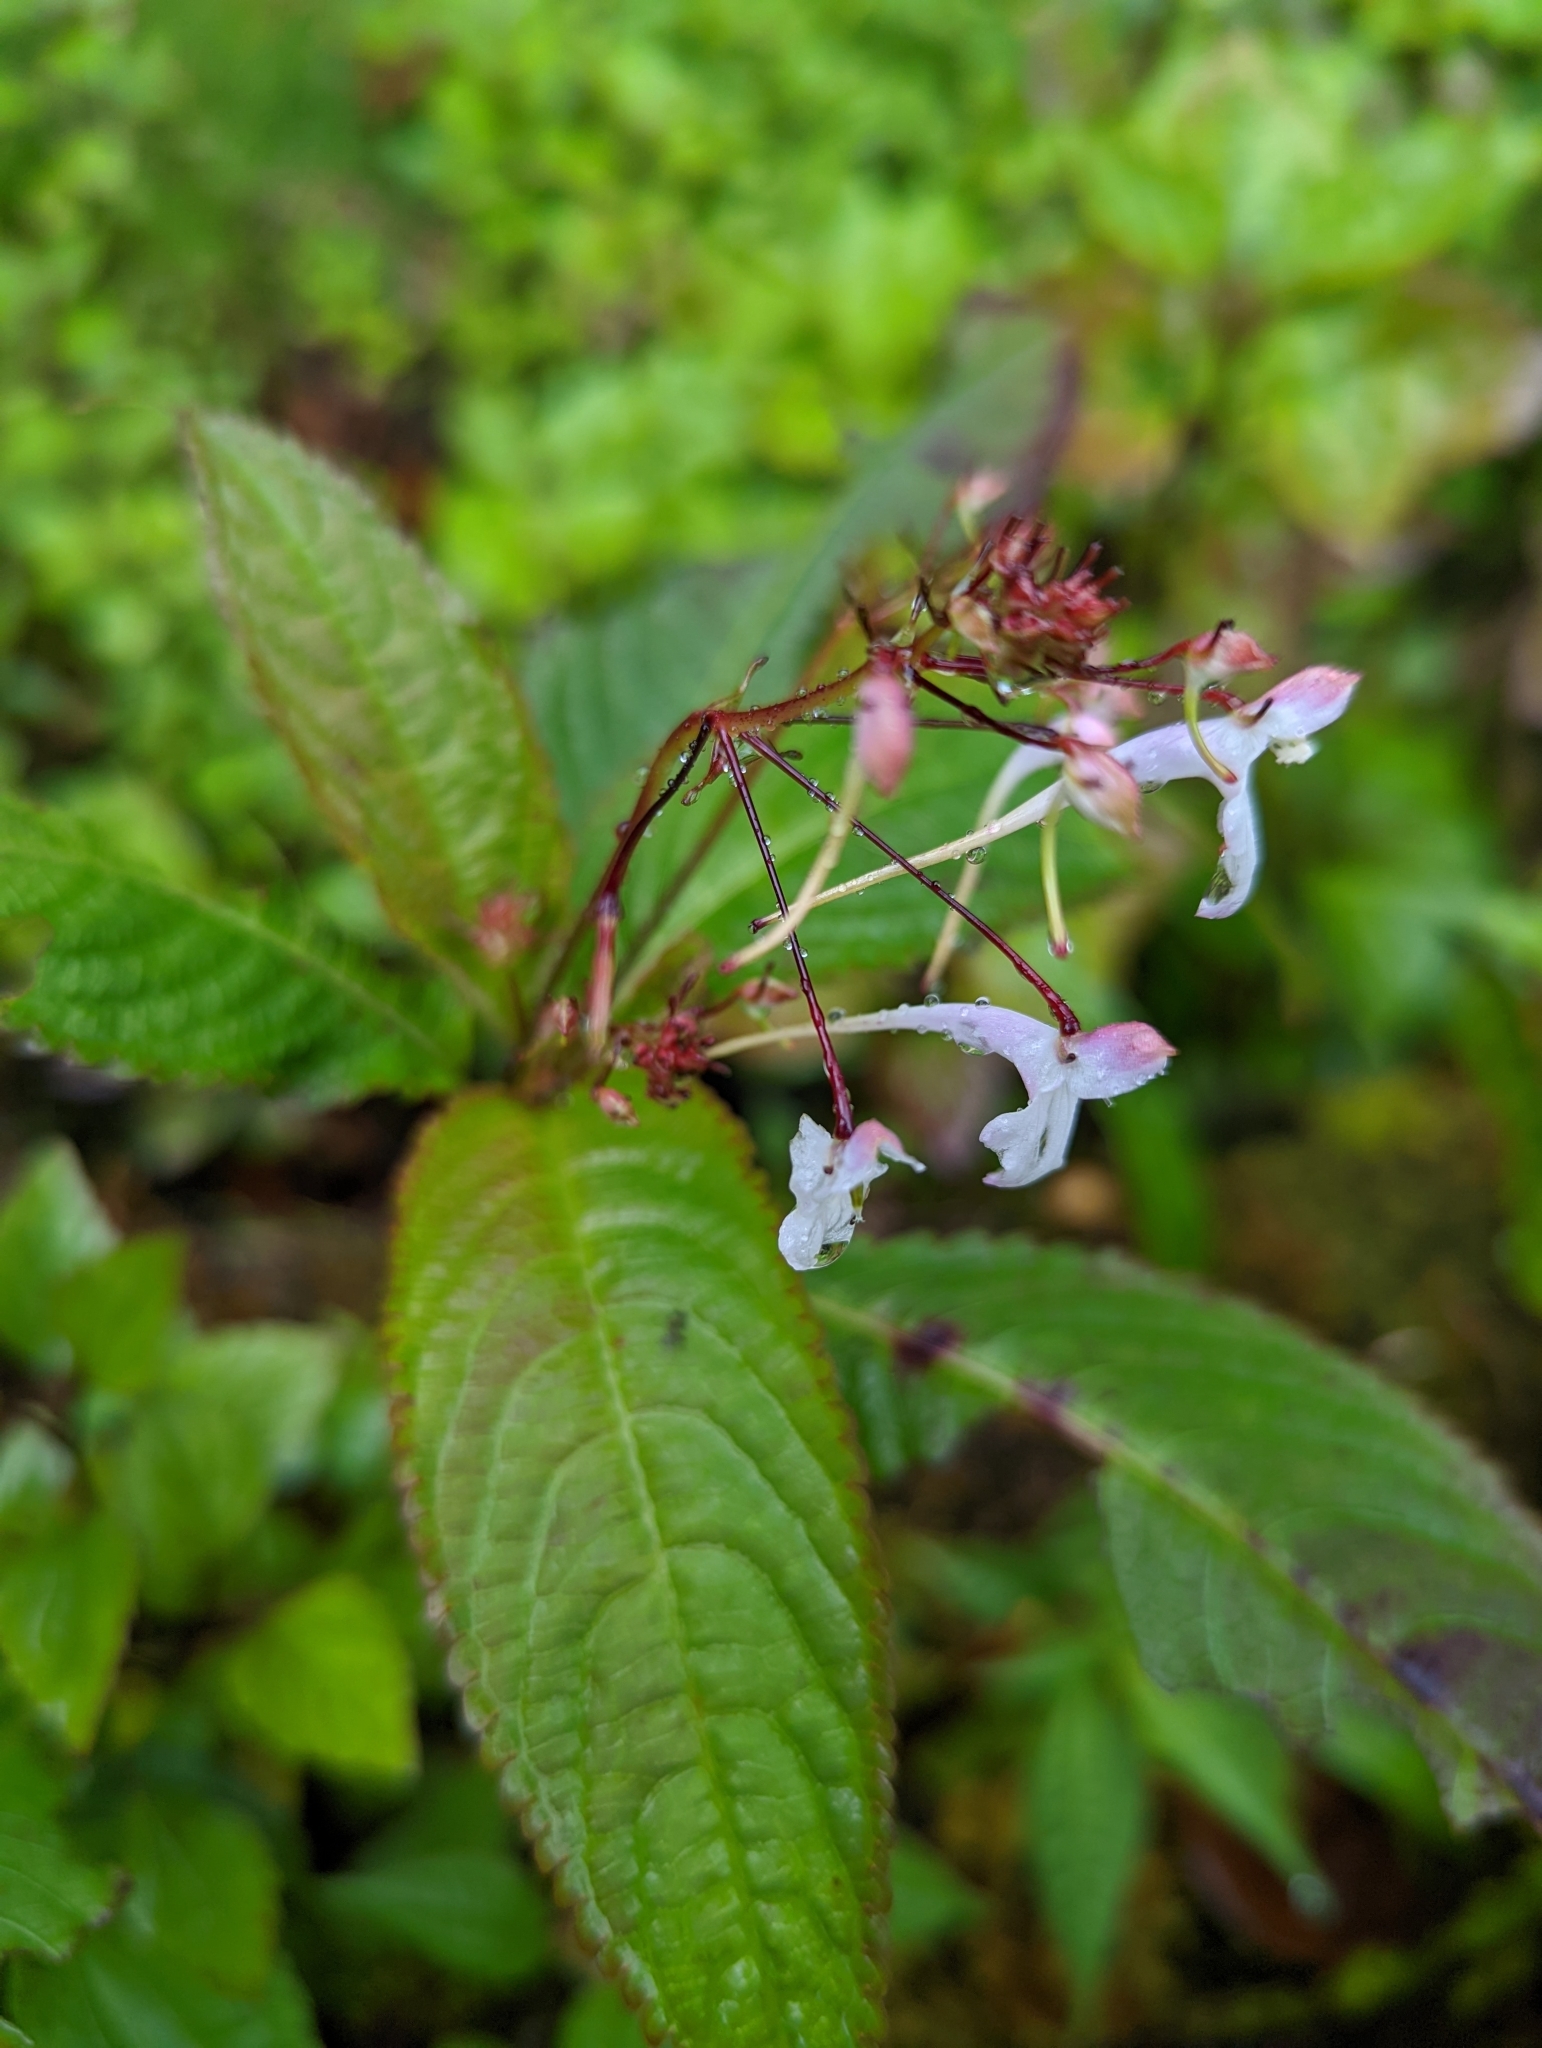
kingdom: Plantae
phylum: Tracheophyta
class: Magnoliopsida
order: Ericales
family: Balsaminaceae
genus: Impatiens
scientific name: Impatiens radiata
